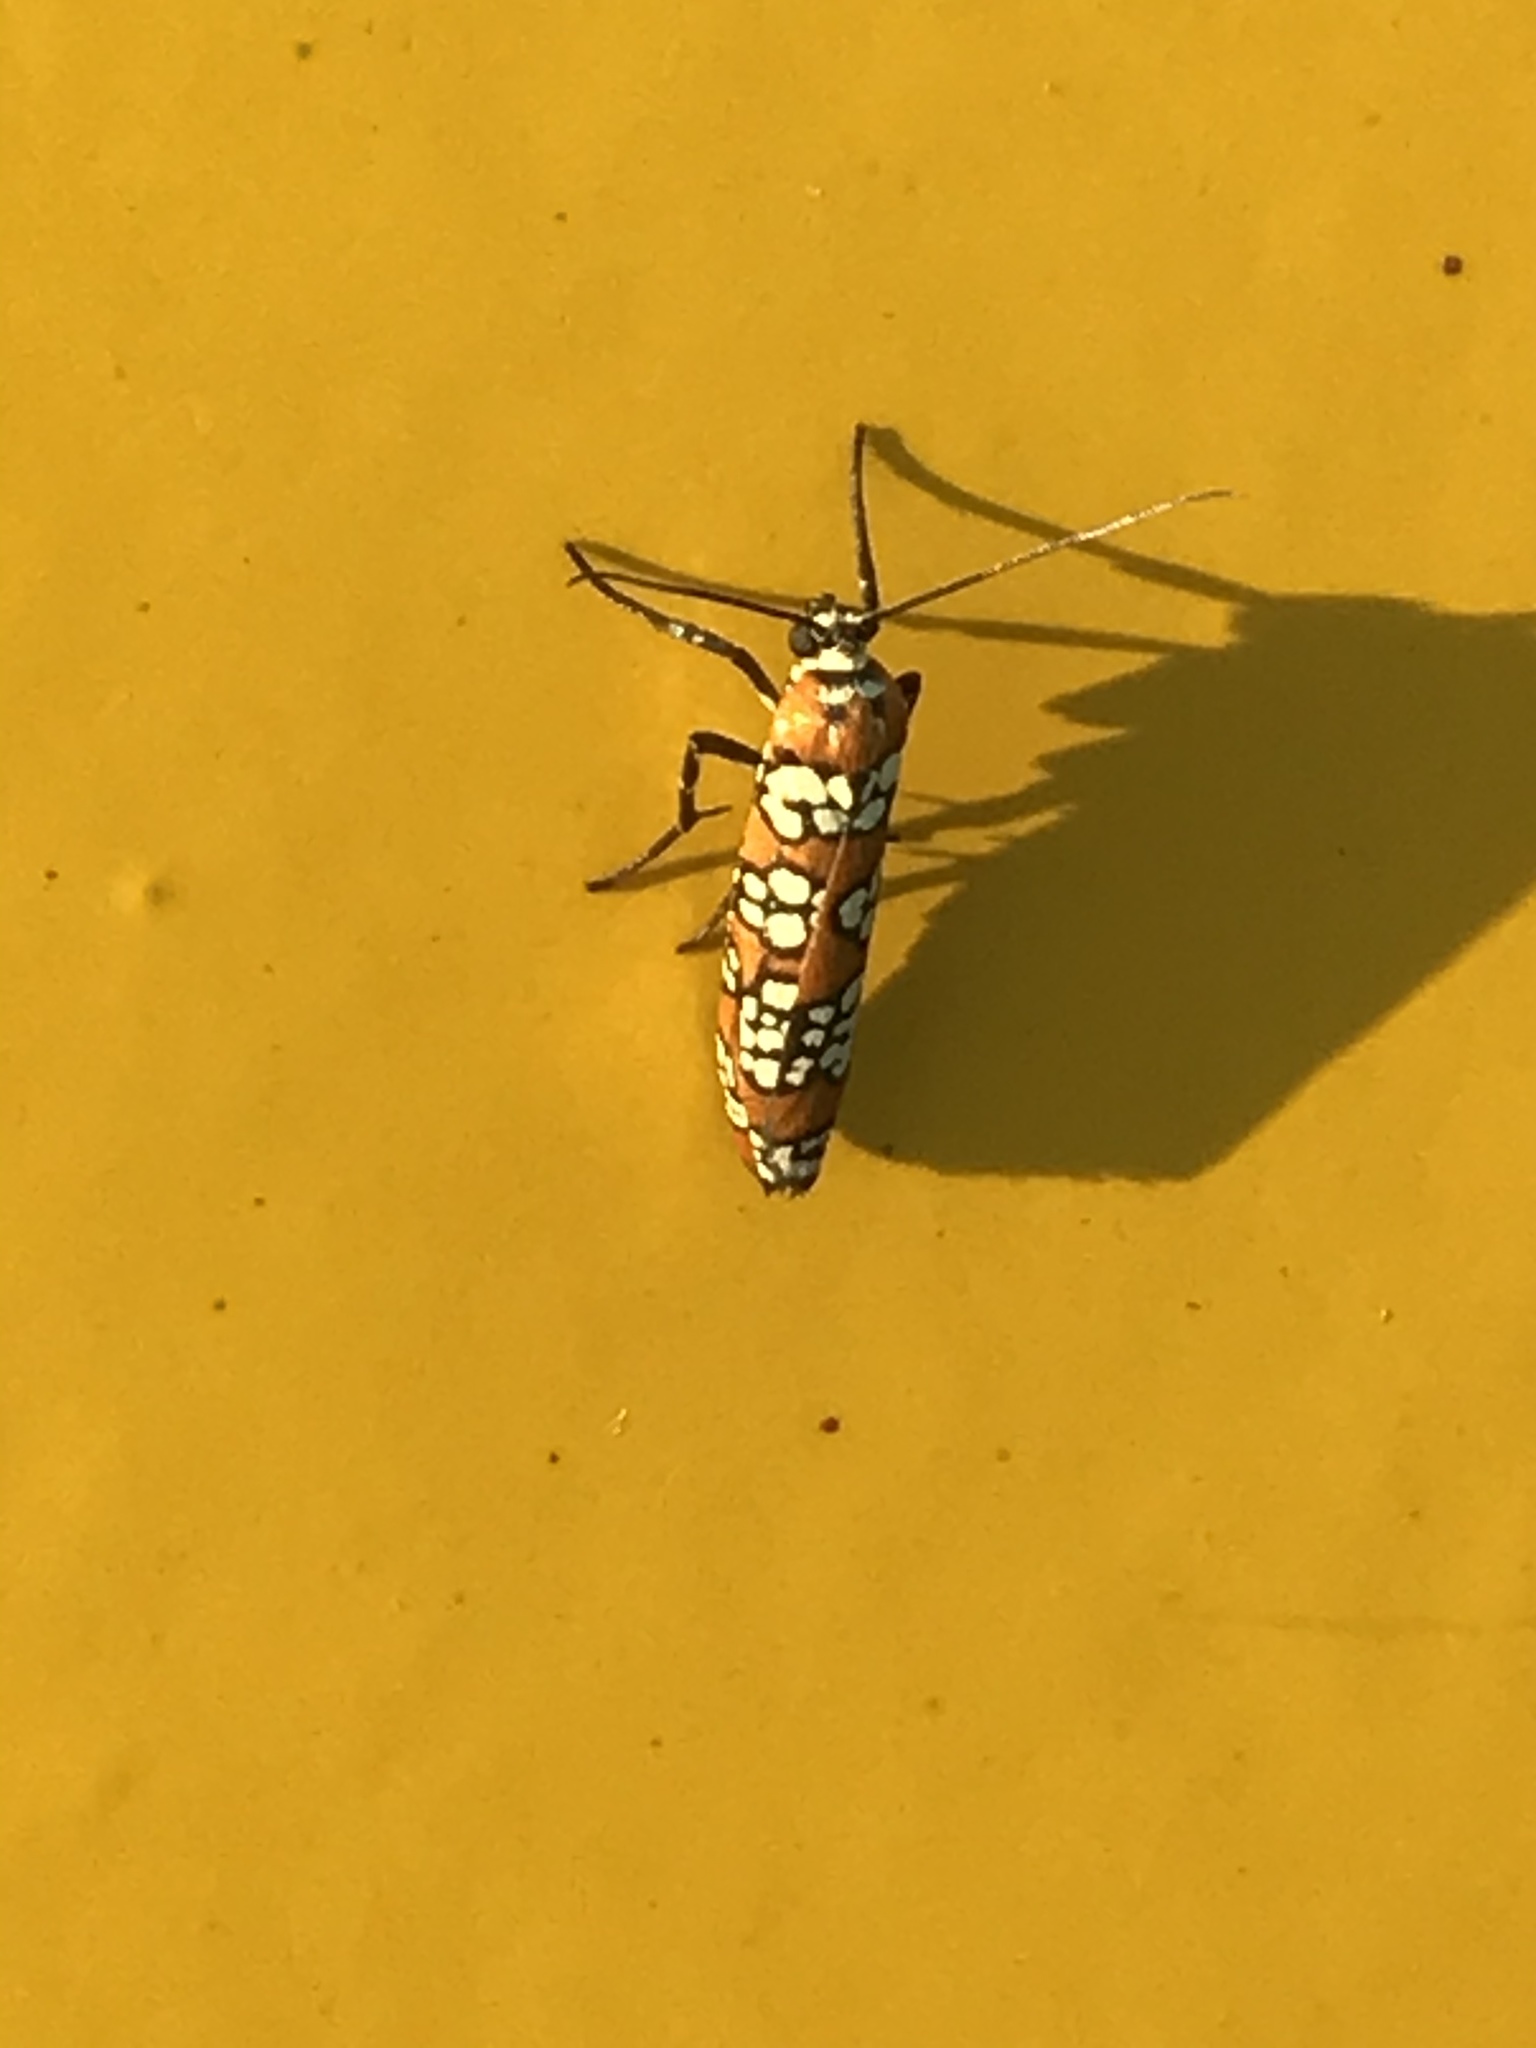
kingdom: Animalia
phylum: Arthropoda
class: Insecta
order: Lepidoptera
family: Attevidae
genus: Atteva
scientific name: Atteva punctella
